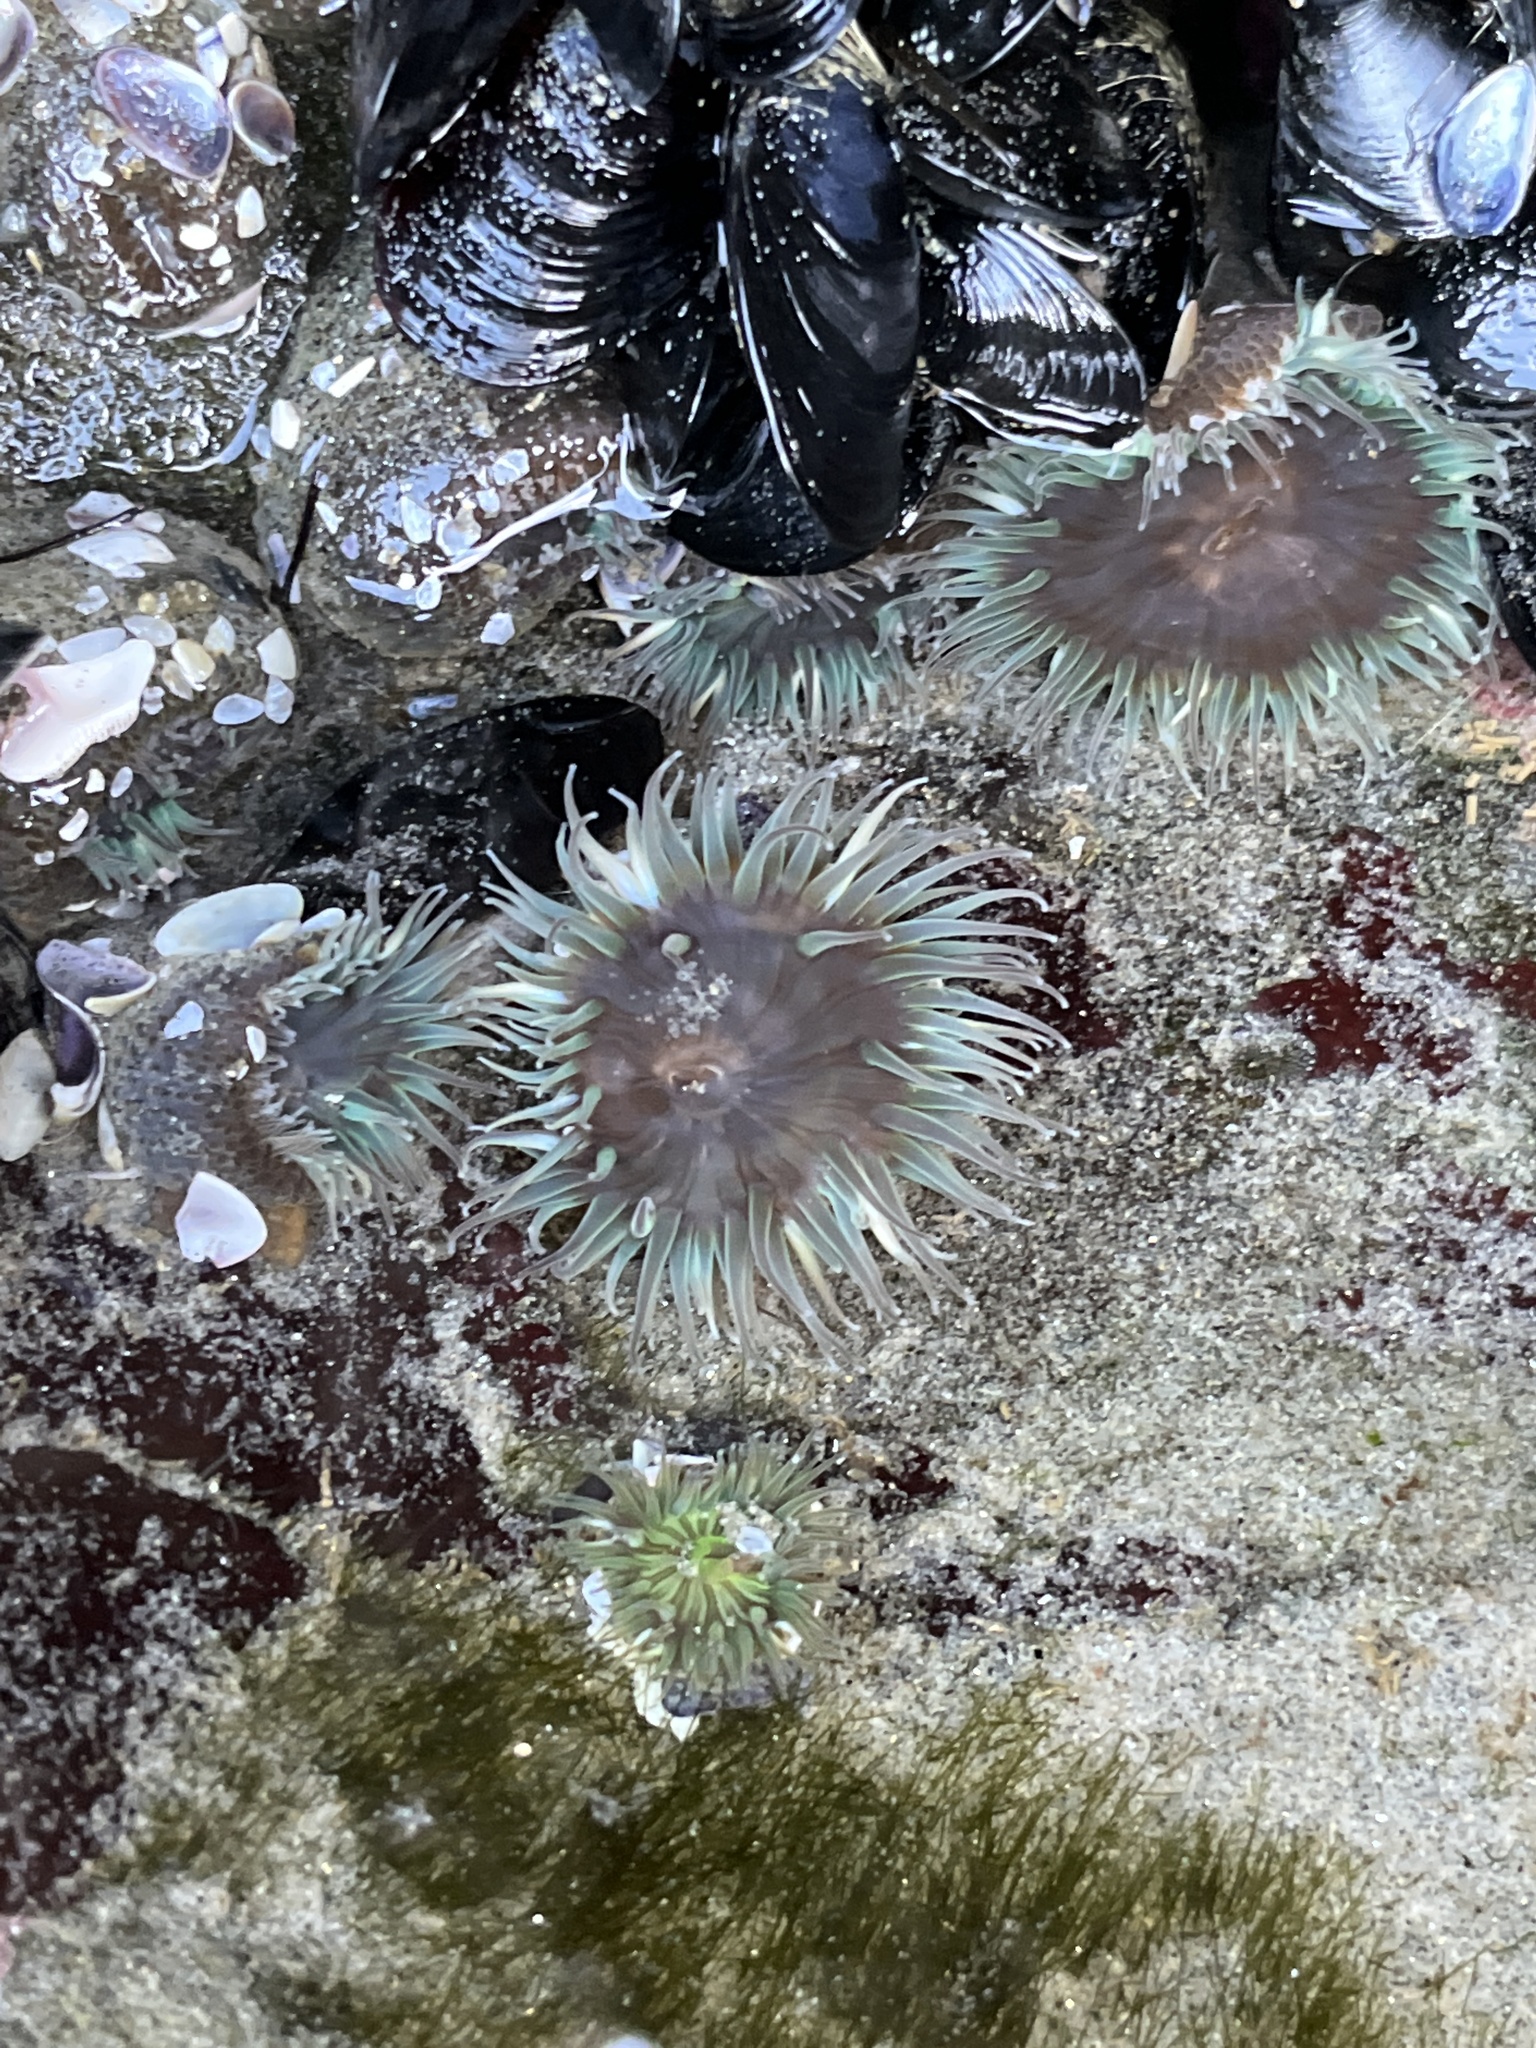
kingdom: Animalia
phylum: Cnidaria
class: Anthozoa
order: Actiniaria
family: Actiniidae
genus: Anthopleura
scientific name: Anthopleura elegantissima
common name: Clonal anemone
